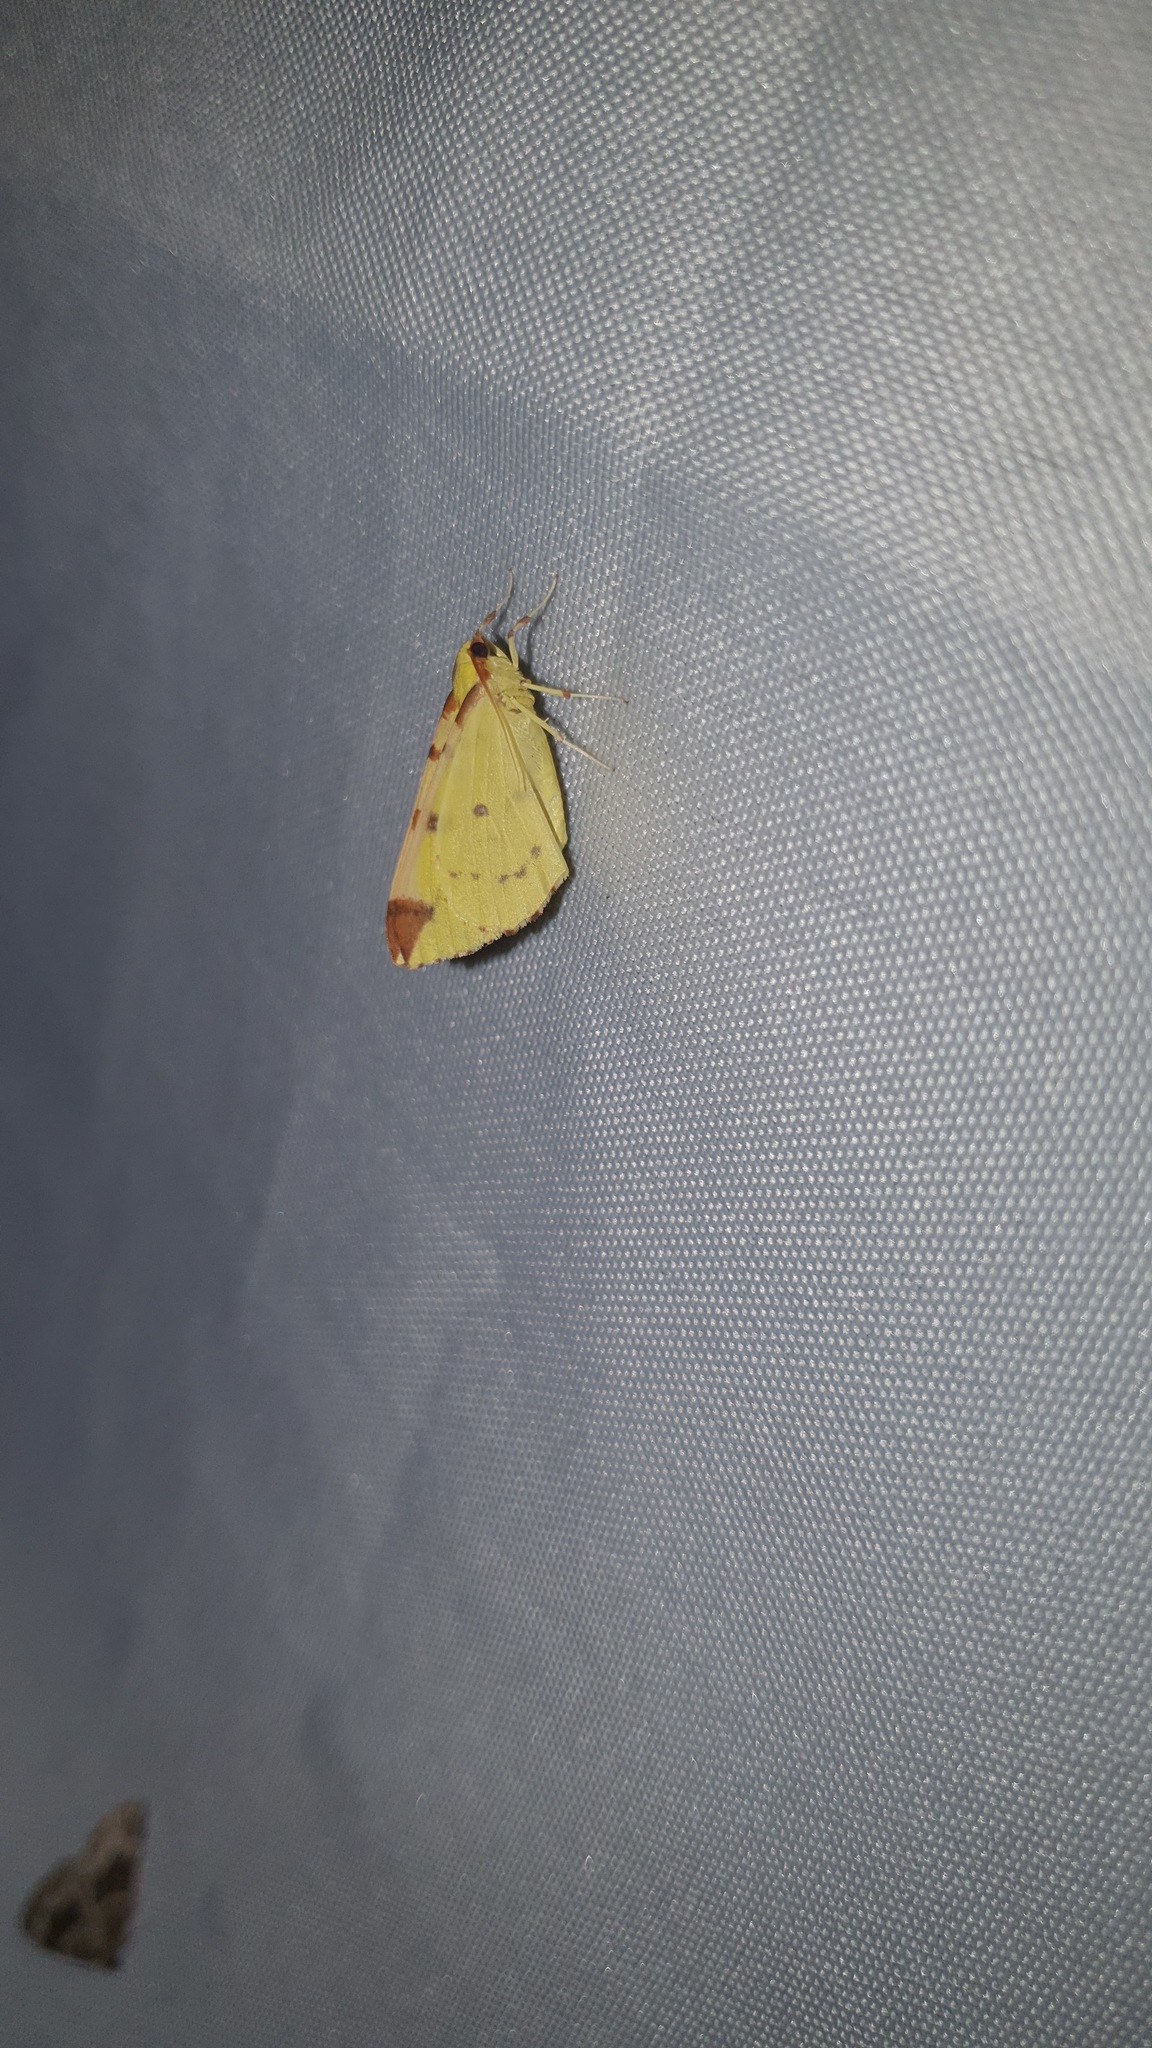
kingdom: Animalia
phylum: Arthropoda
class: Insecta
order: Lepidoptera
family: Geometridae
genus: Opisthograptis
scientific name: Opisthograptis luteolata
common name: Brimstone moth
